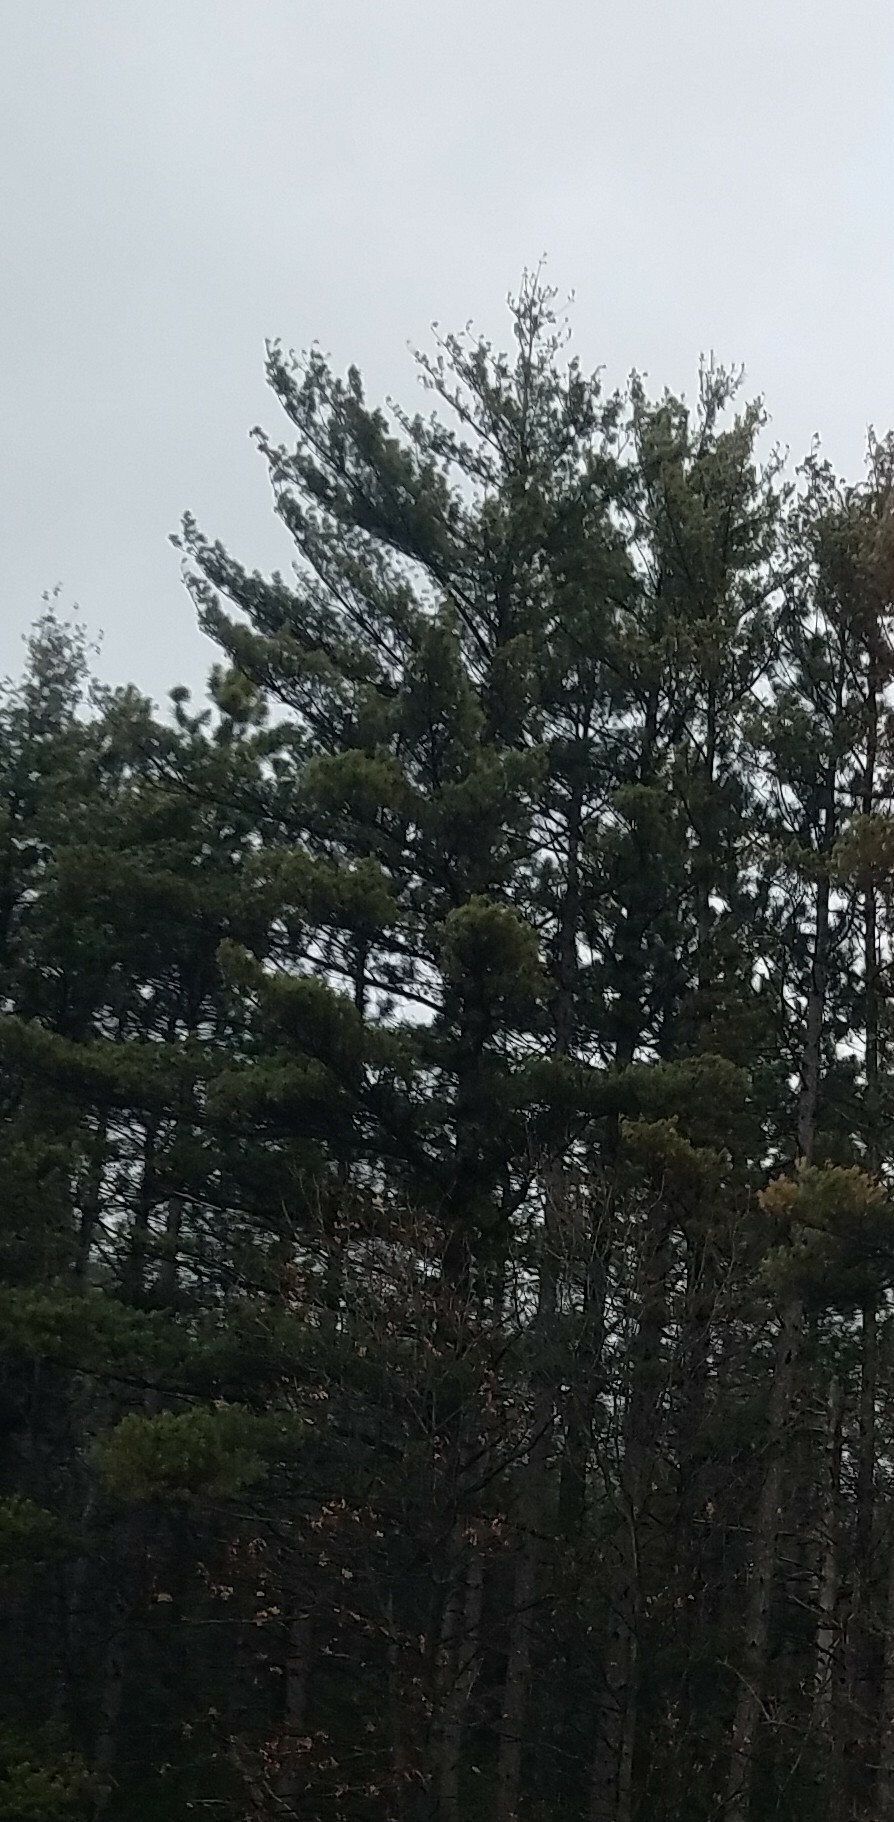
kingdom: Plantae
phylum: Tracheophyta
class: Pinopsida
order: Pinales
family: Pinaceae
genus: Pinus
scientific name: Pinus strobus
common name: Weymouth pine
